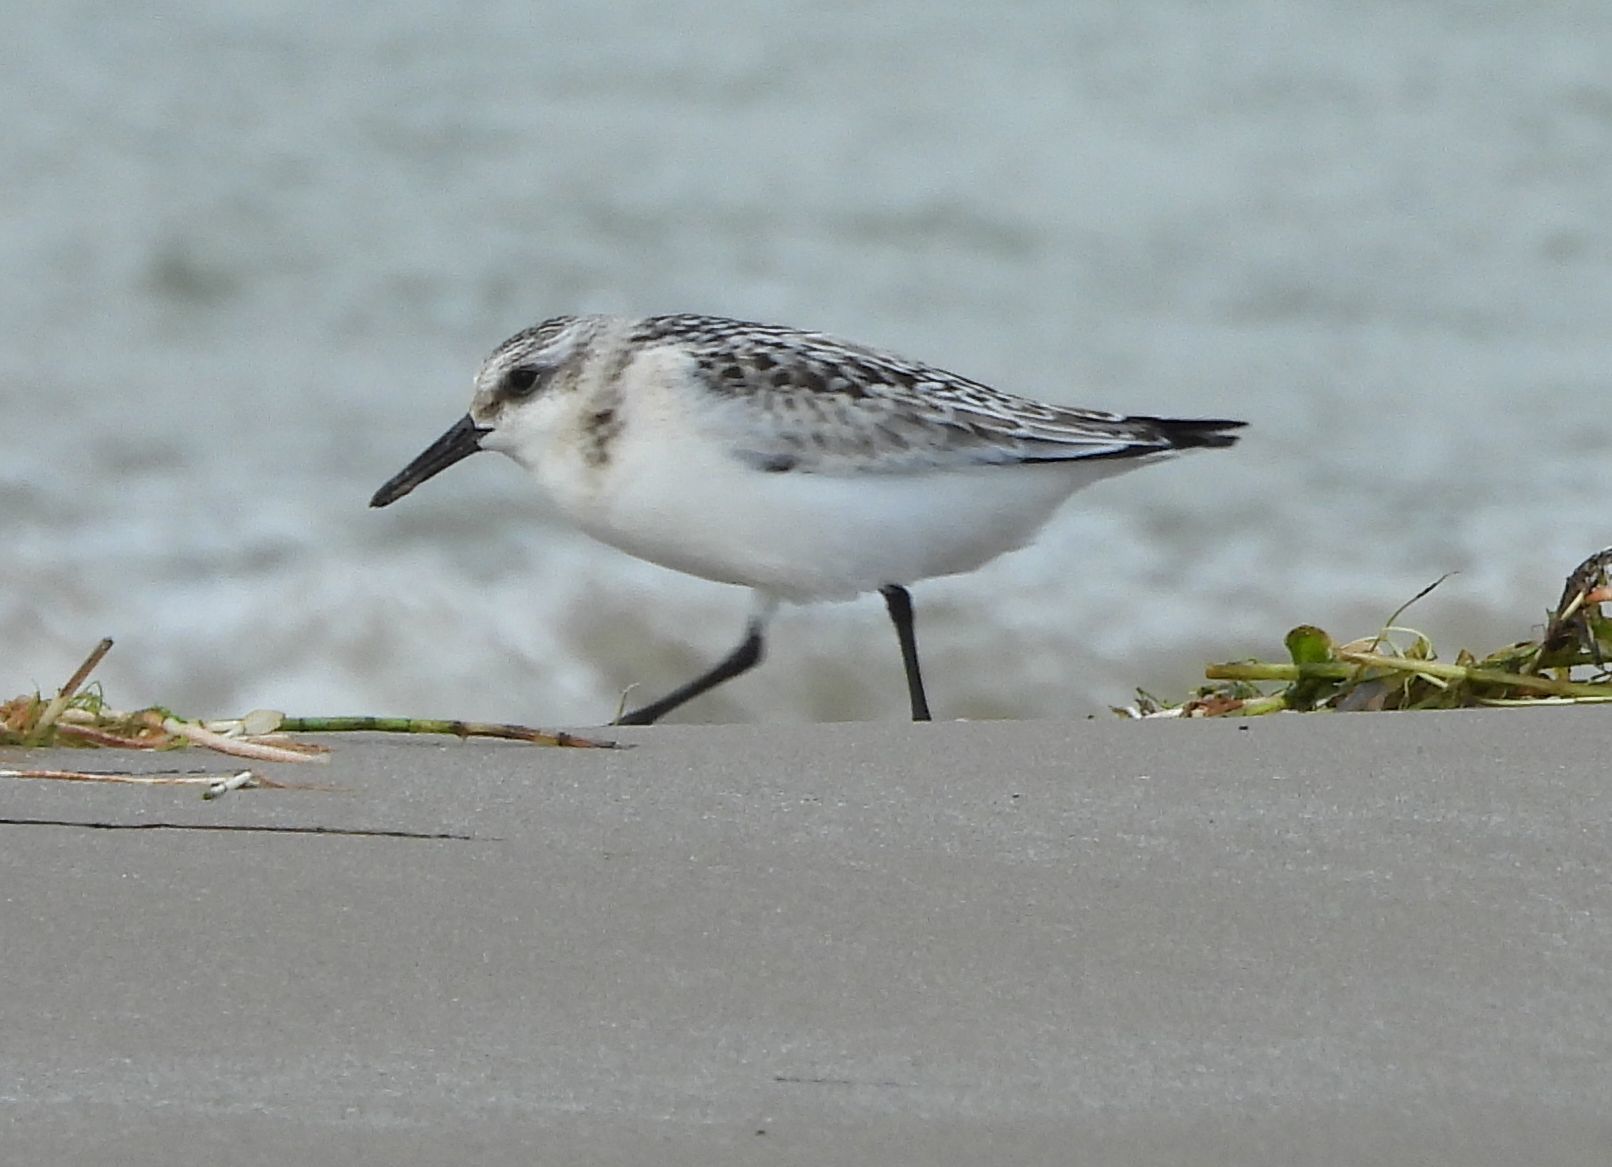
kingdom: Animalia
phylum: Chordata
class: Aves
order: Charadriiformes
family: Scolopacidae
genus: Calidris
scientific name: Calidris alba
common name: Sanderling
